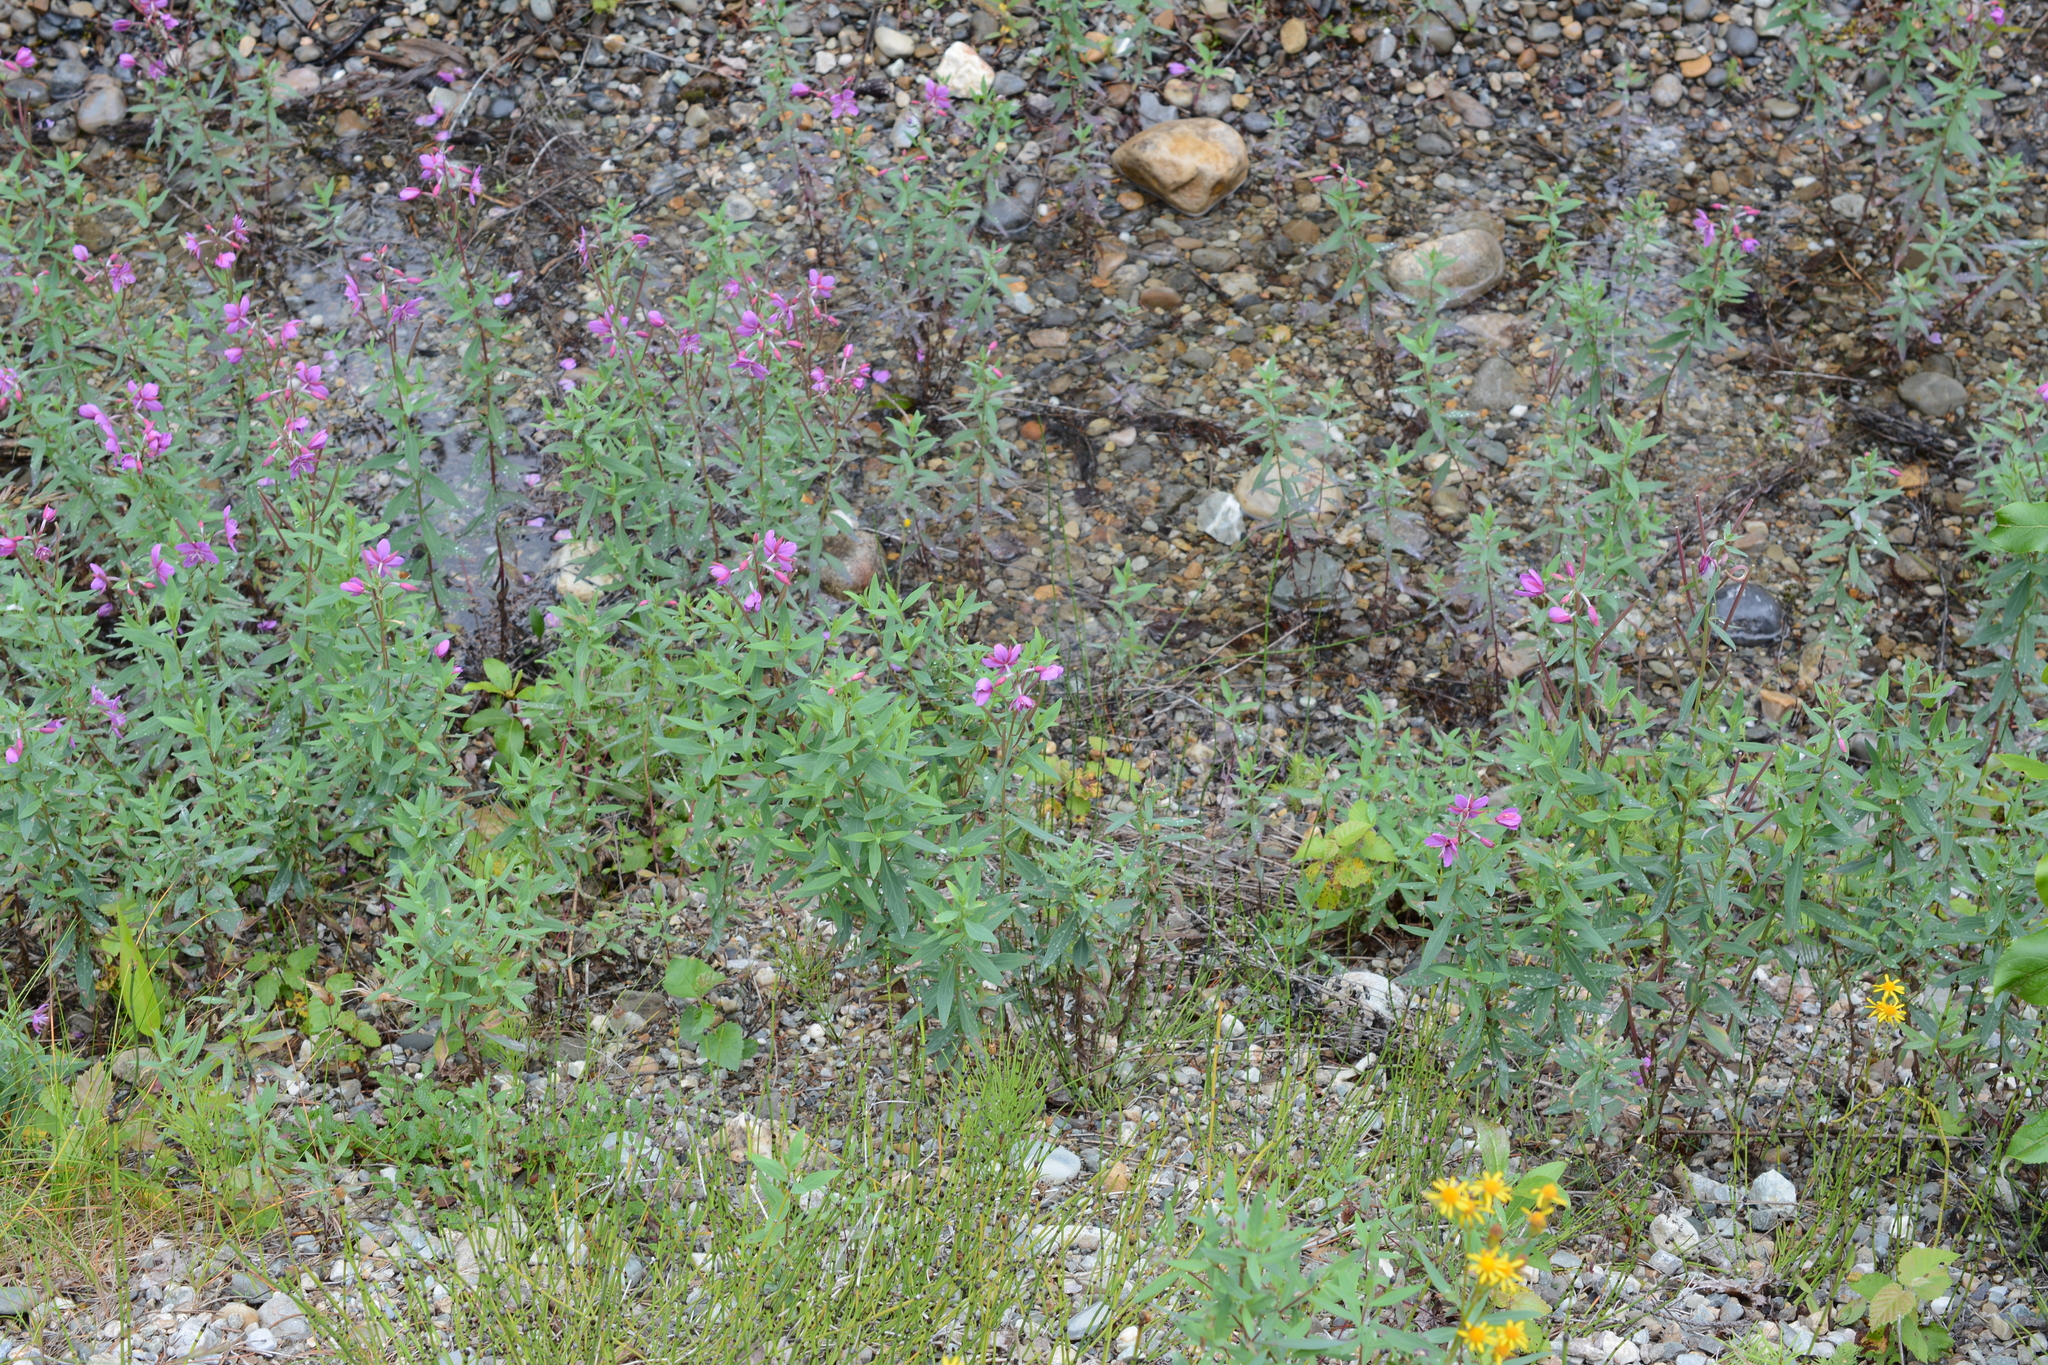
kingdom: Plantae
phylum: Tracheophyta
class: Magnoliopsida
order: Myrtales
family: Onagraceae
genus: Chamaenerion
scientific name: Chamaenerion angustifolium
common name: Fireweed
